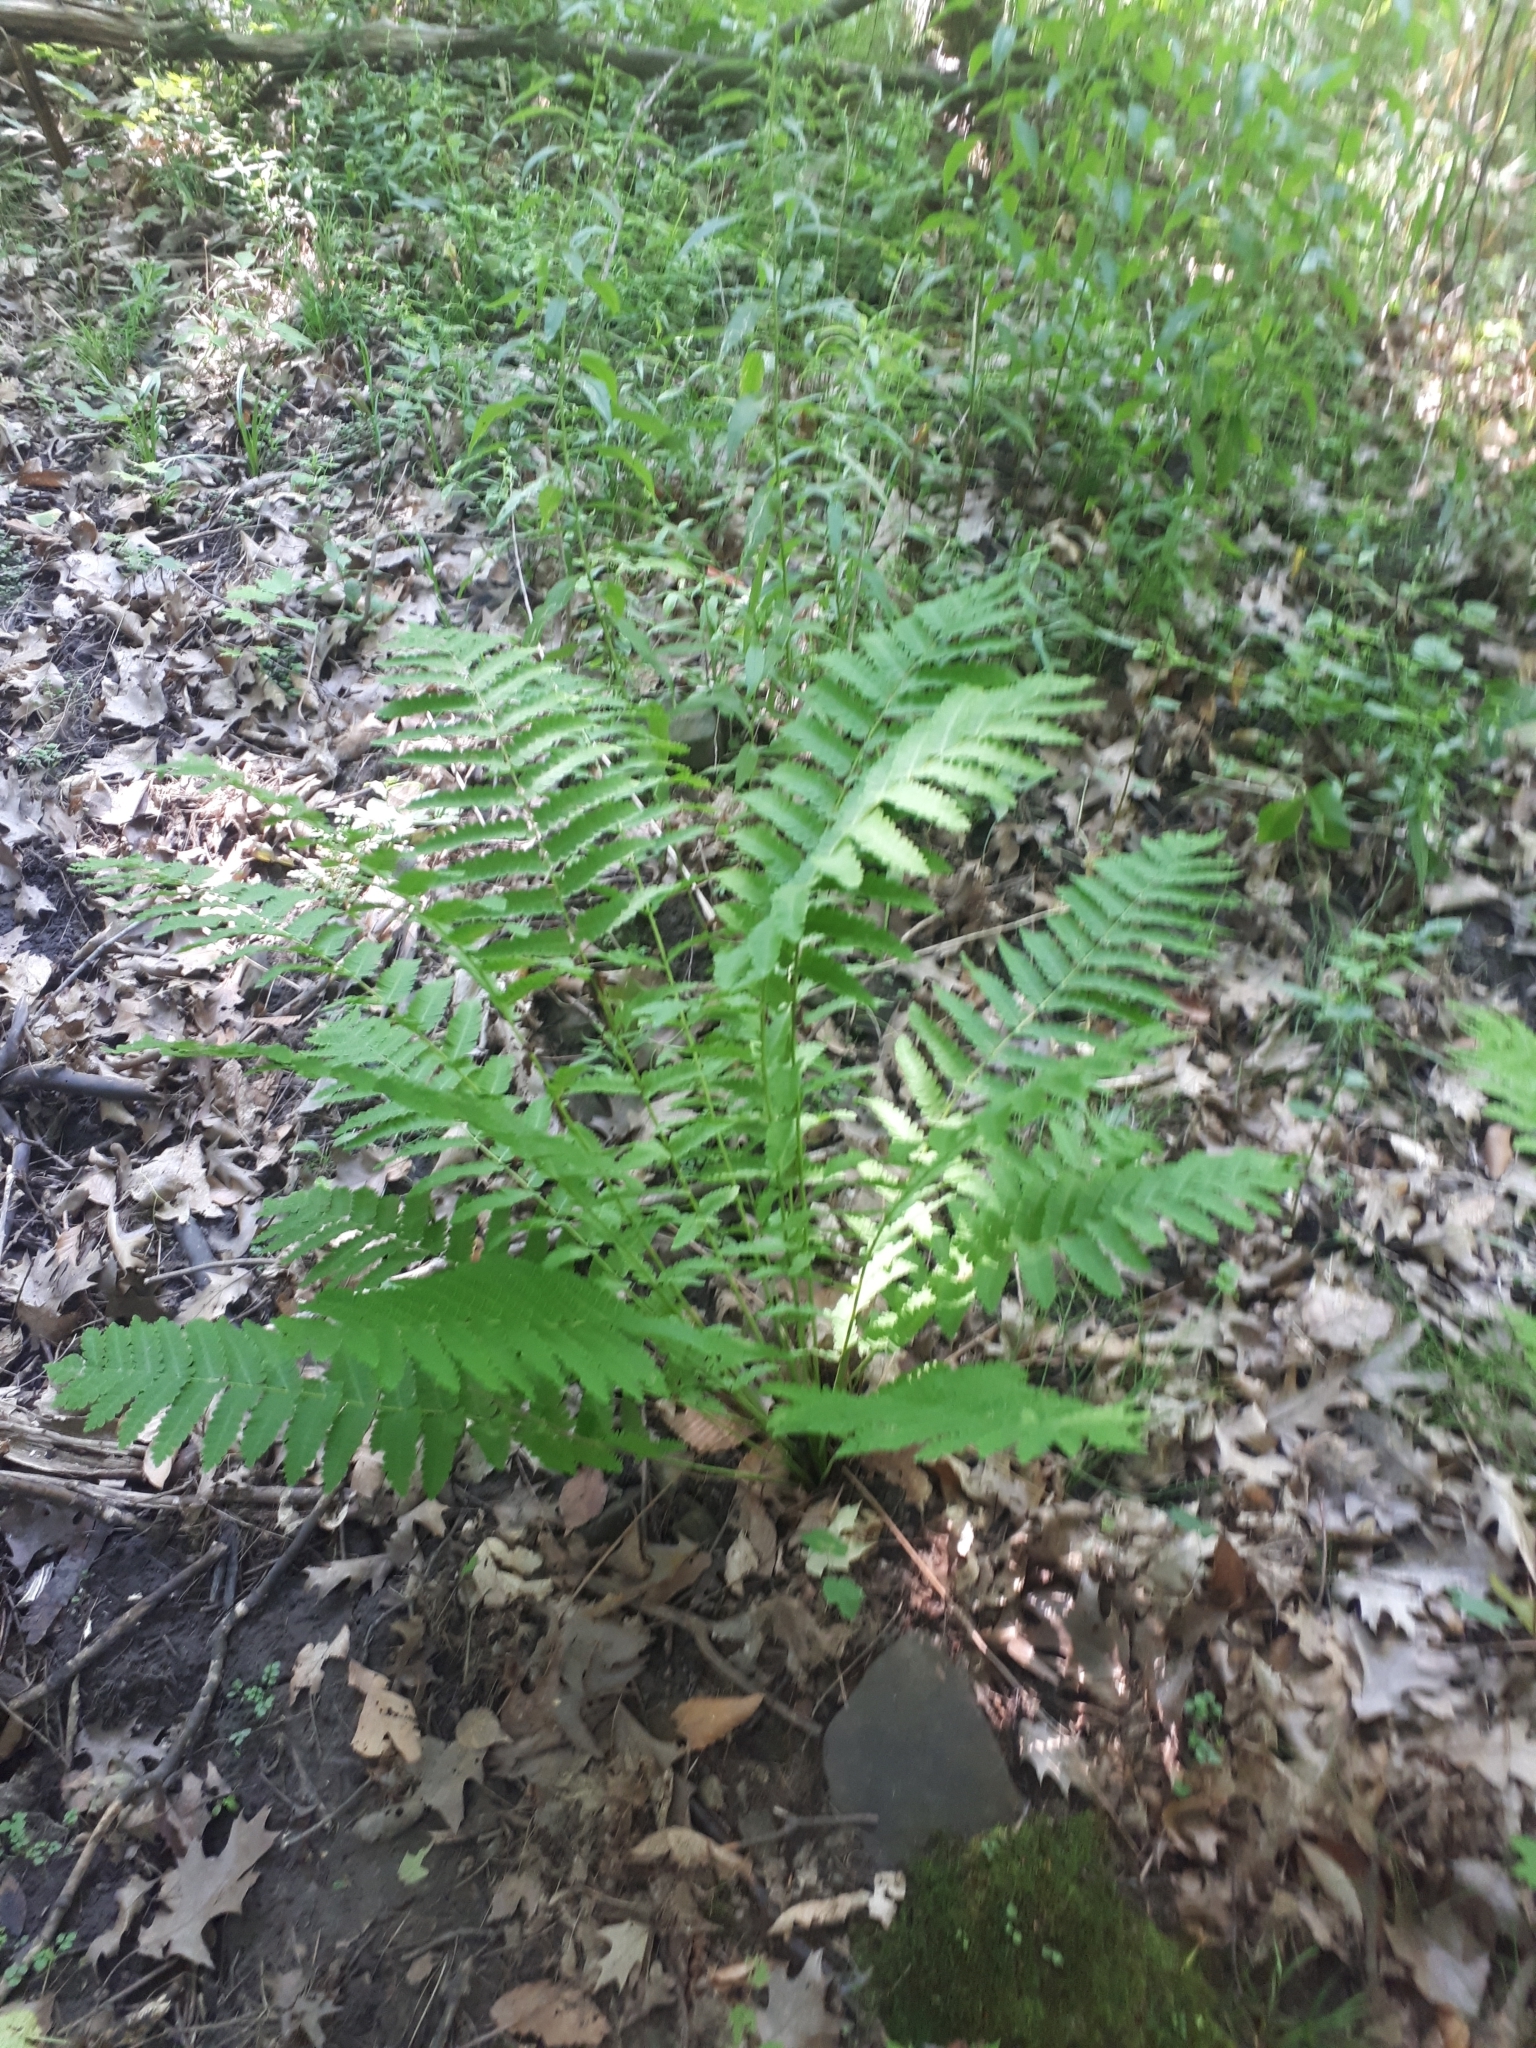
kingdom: Plantae
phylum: Tracheophyta
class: Polypodiopsida
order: Osmundales
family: Osmundaceae
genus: Claytosmunda
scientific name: Claytosmunda claytoniana
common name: Clayton's fern
